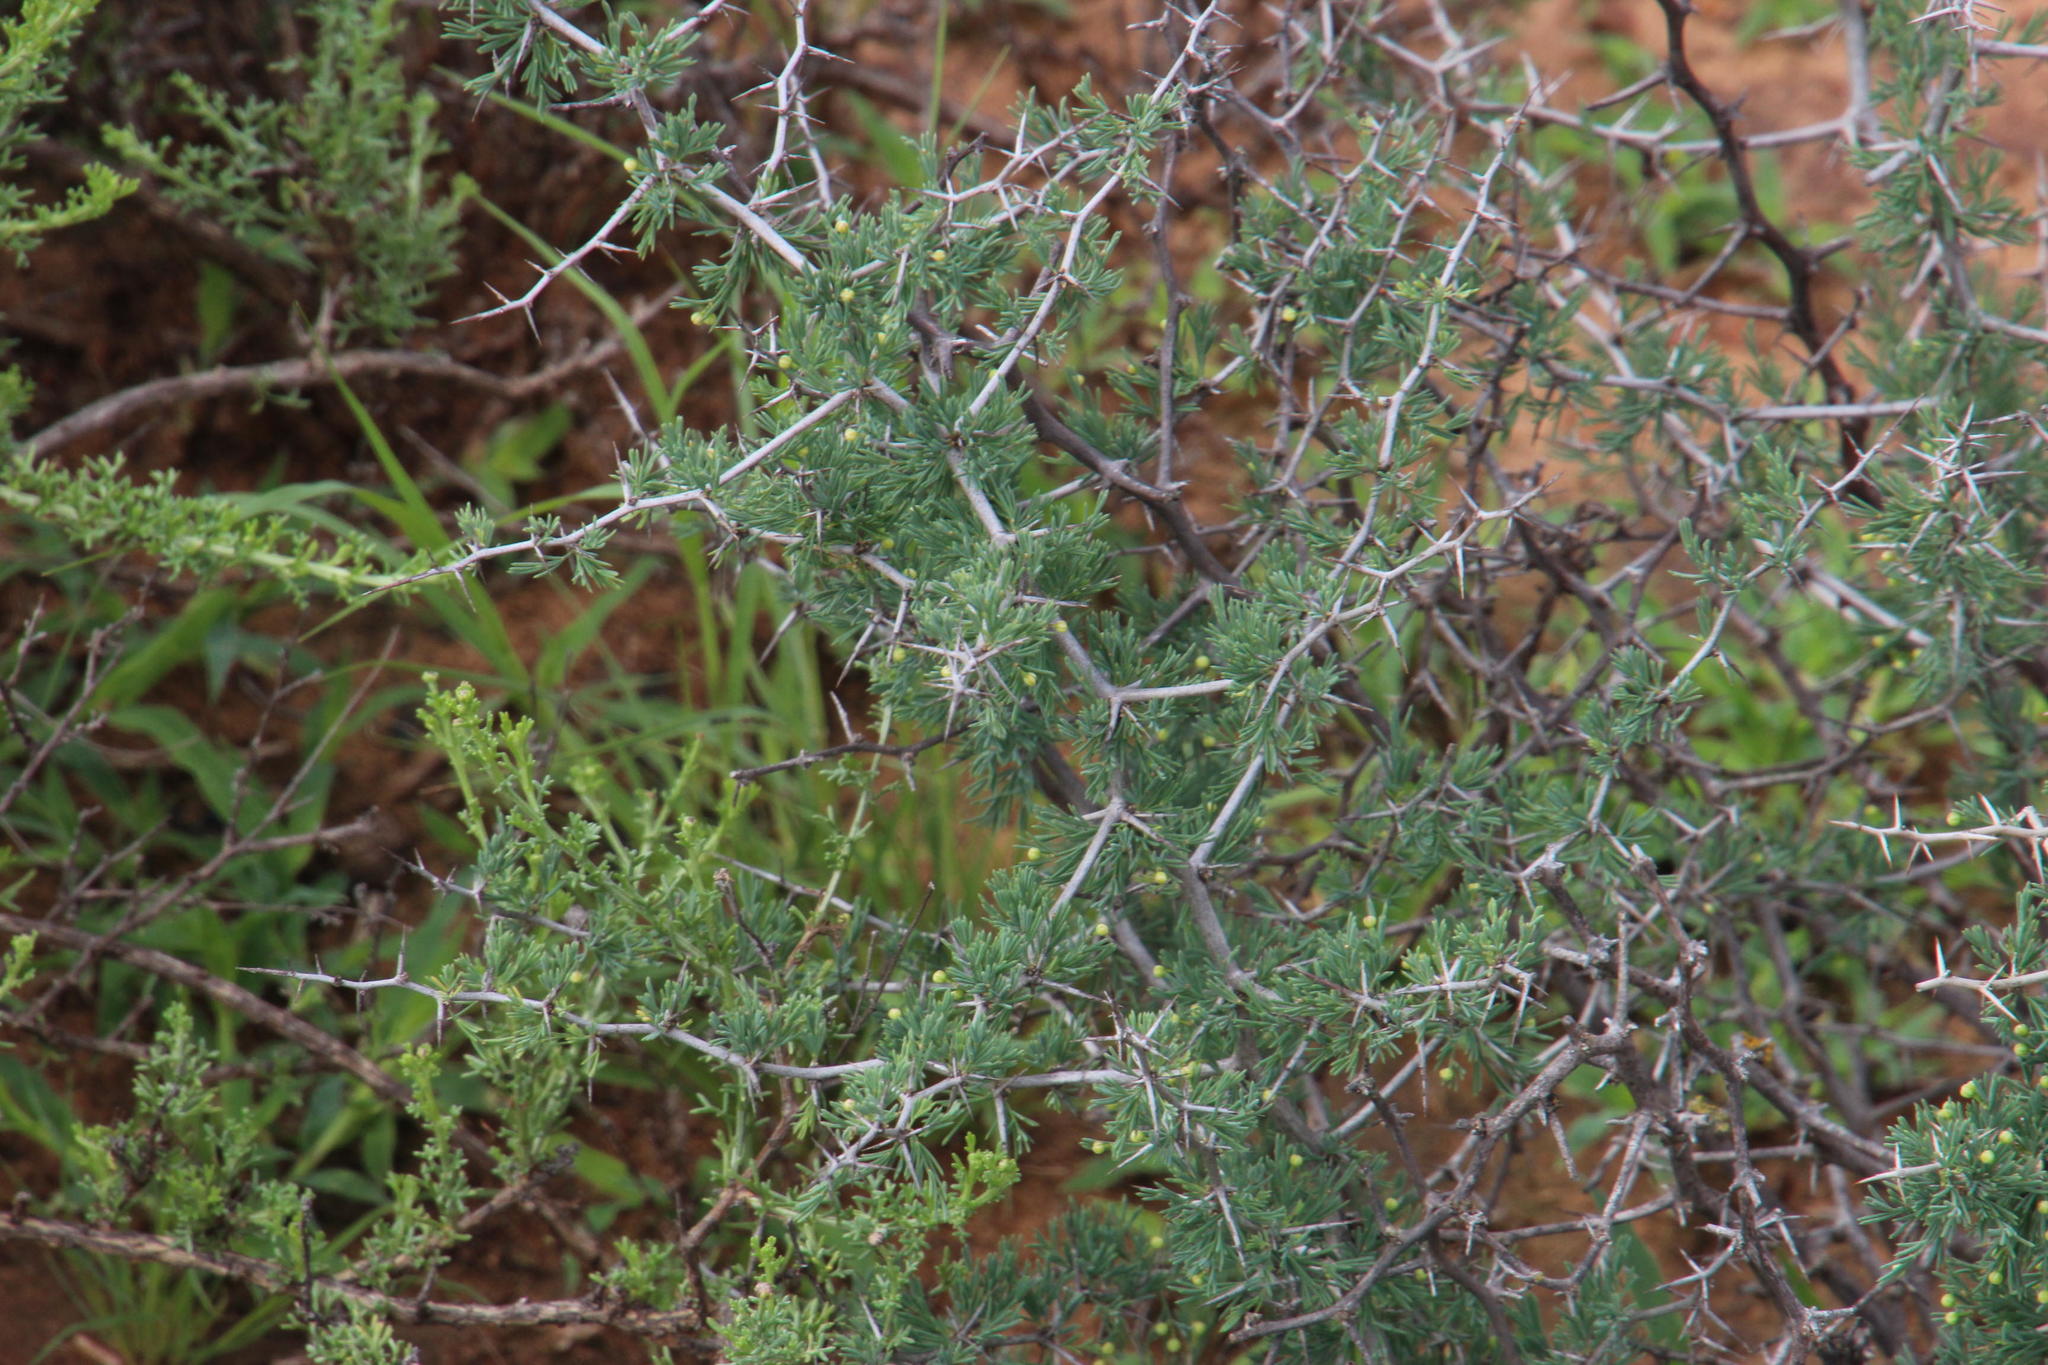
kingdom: Plantae
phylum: Tracheophyta
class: Liliopsida
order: Asparagales
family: Asparagaceae
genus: Asparagus
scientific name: Asparagus suaveolens
